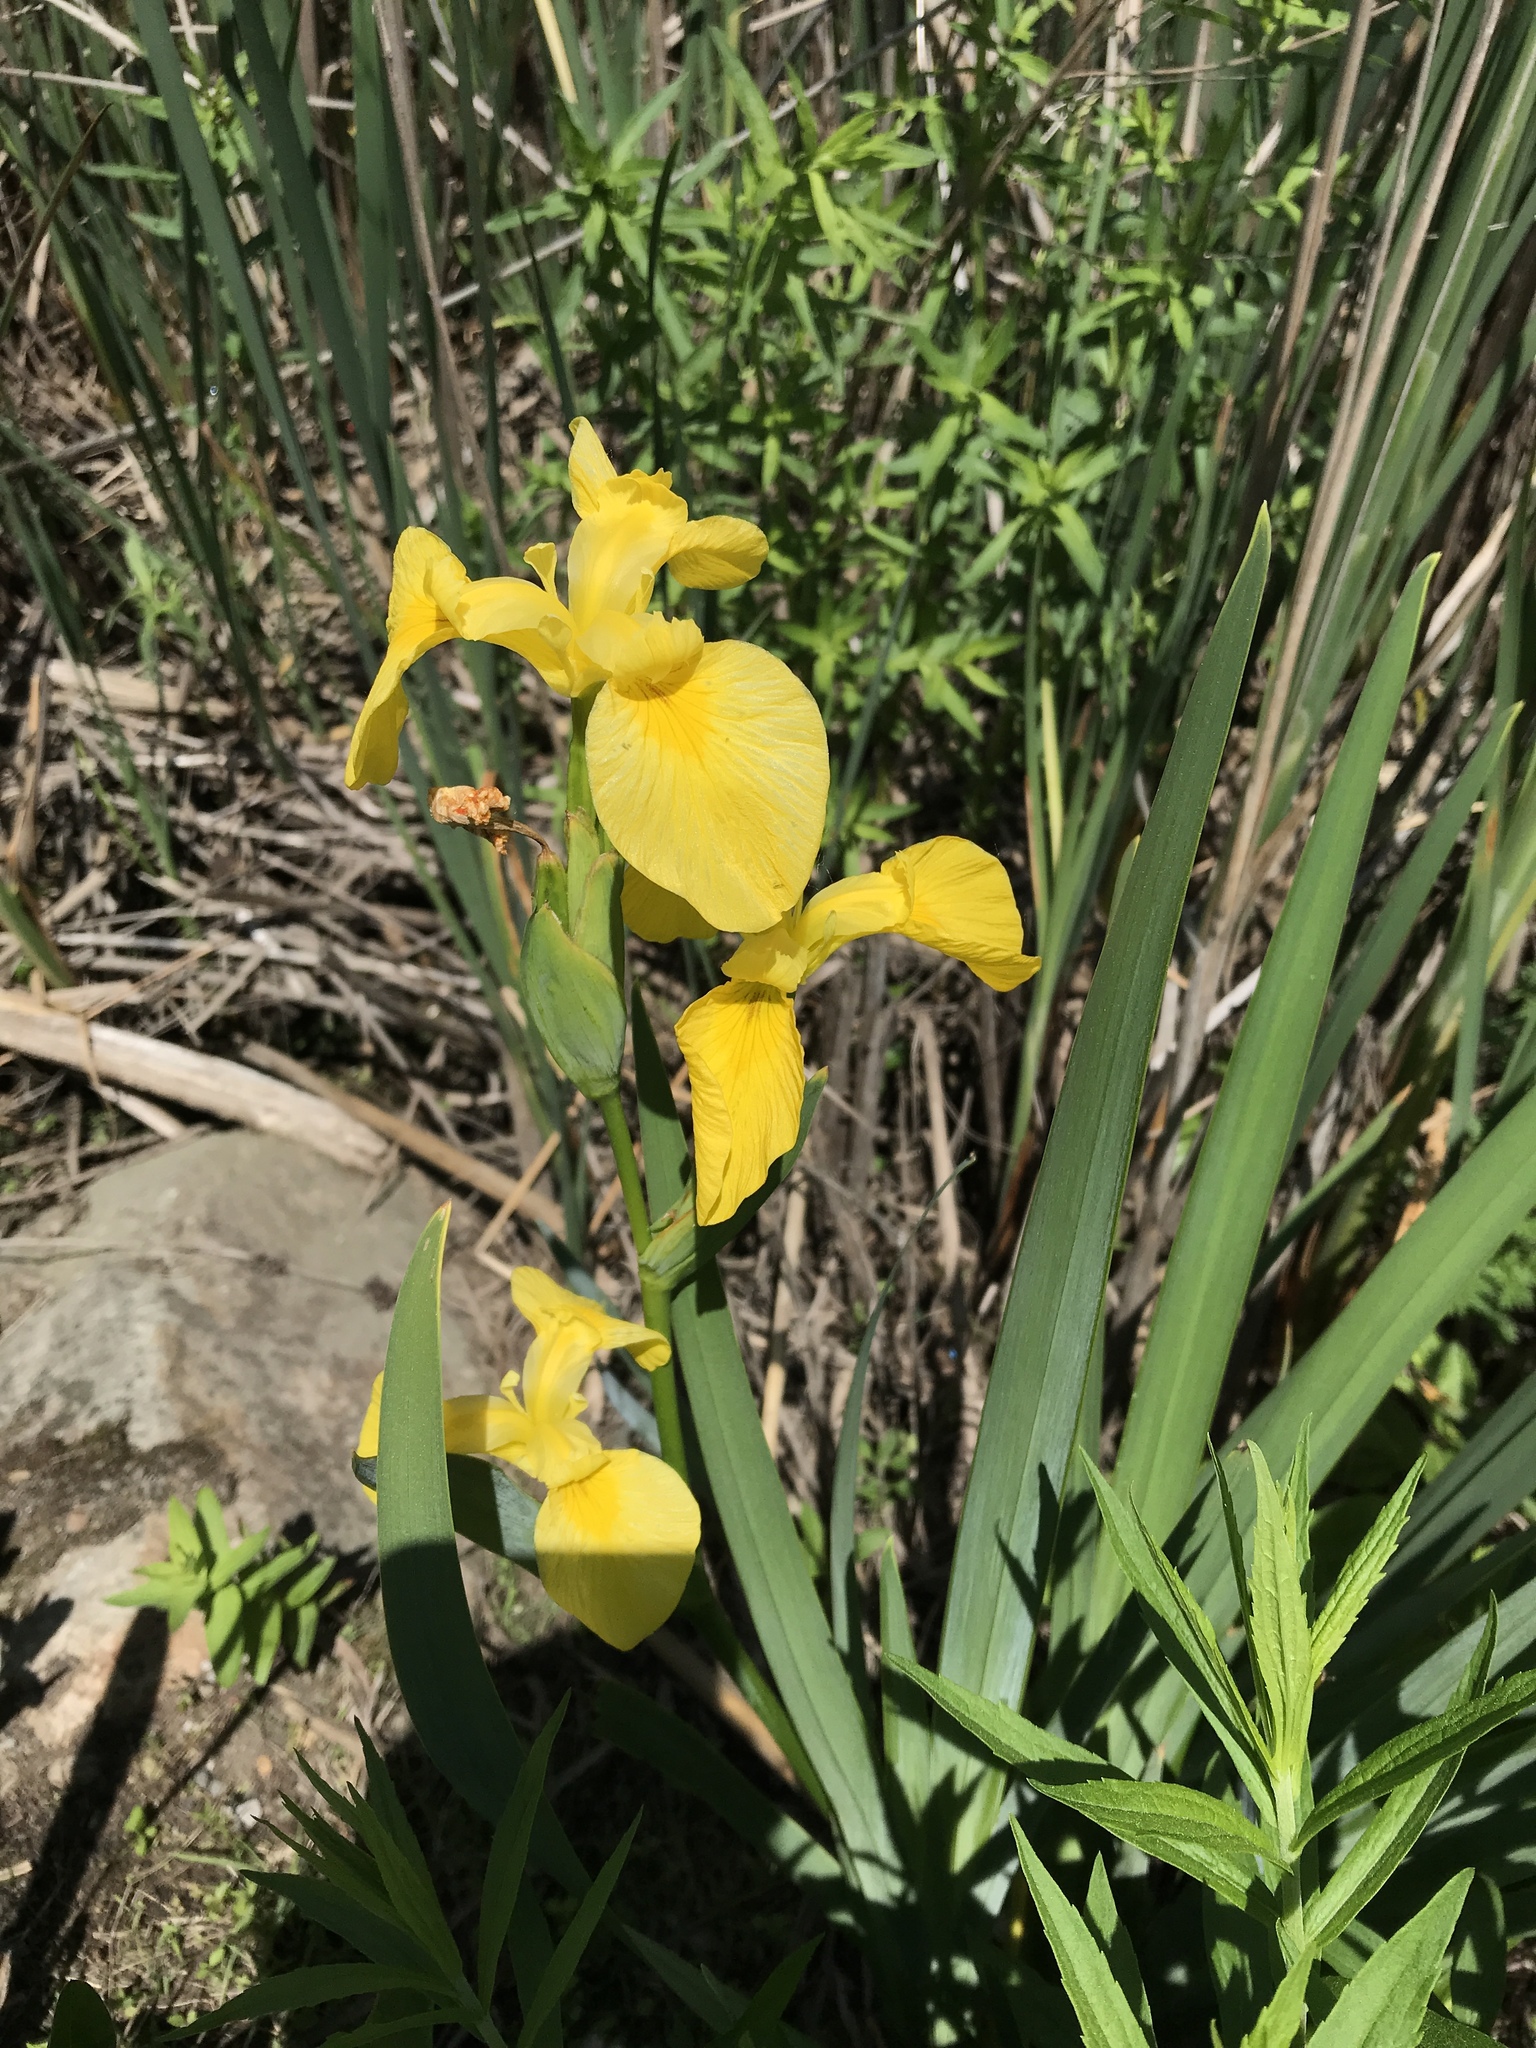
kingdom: Plantae
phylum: Tracheophyta
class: Liliopsida
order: Asparagales
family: Iridaceae
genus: Iris
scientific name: Iris pseudacorus
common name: Yellow flag
